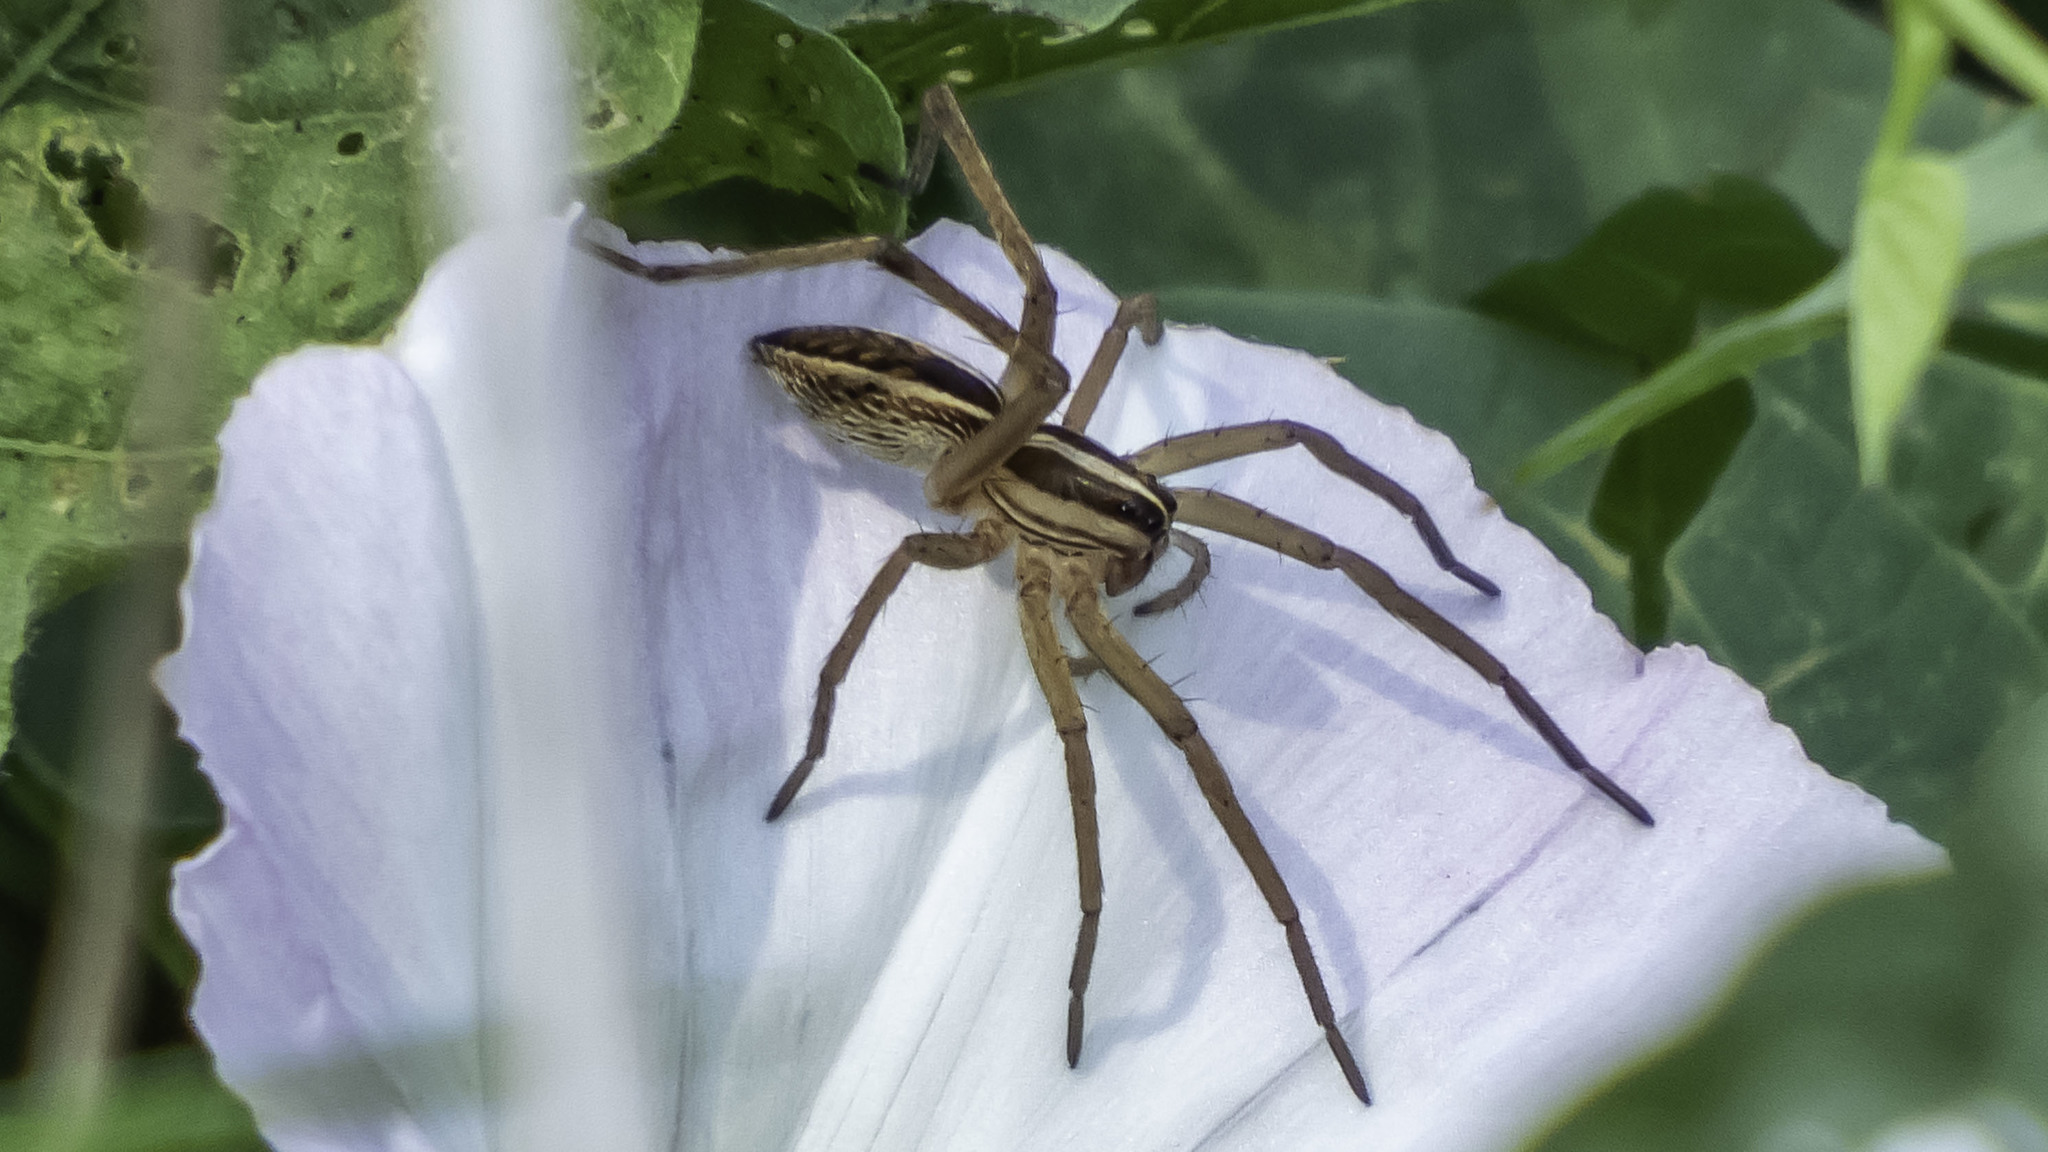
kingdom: Animalia
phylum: Arthropoda
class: Arachnida
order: Araneae
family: Lycosidae
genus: Rabidosa
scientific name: Rabidosa rabida
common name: Rabid wolf spider
